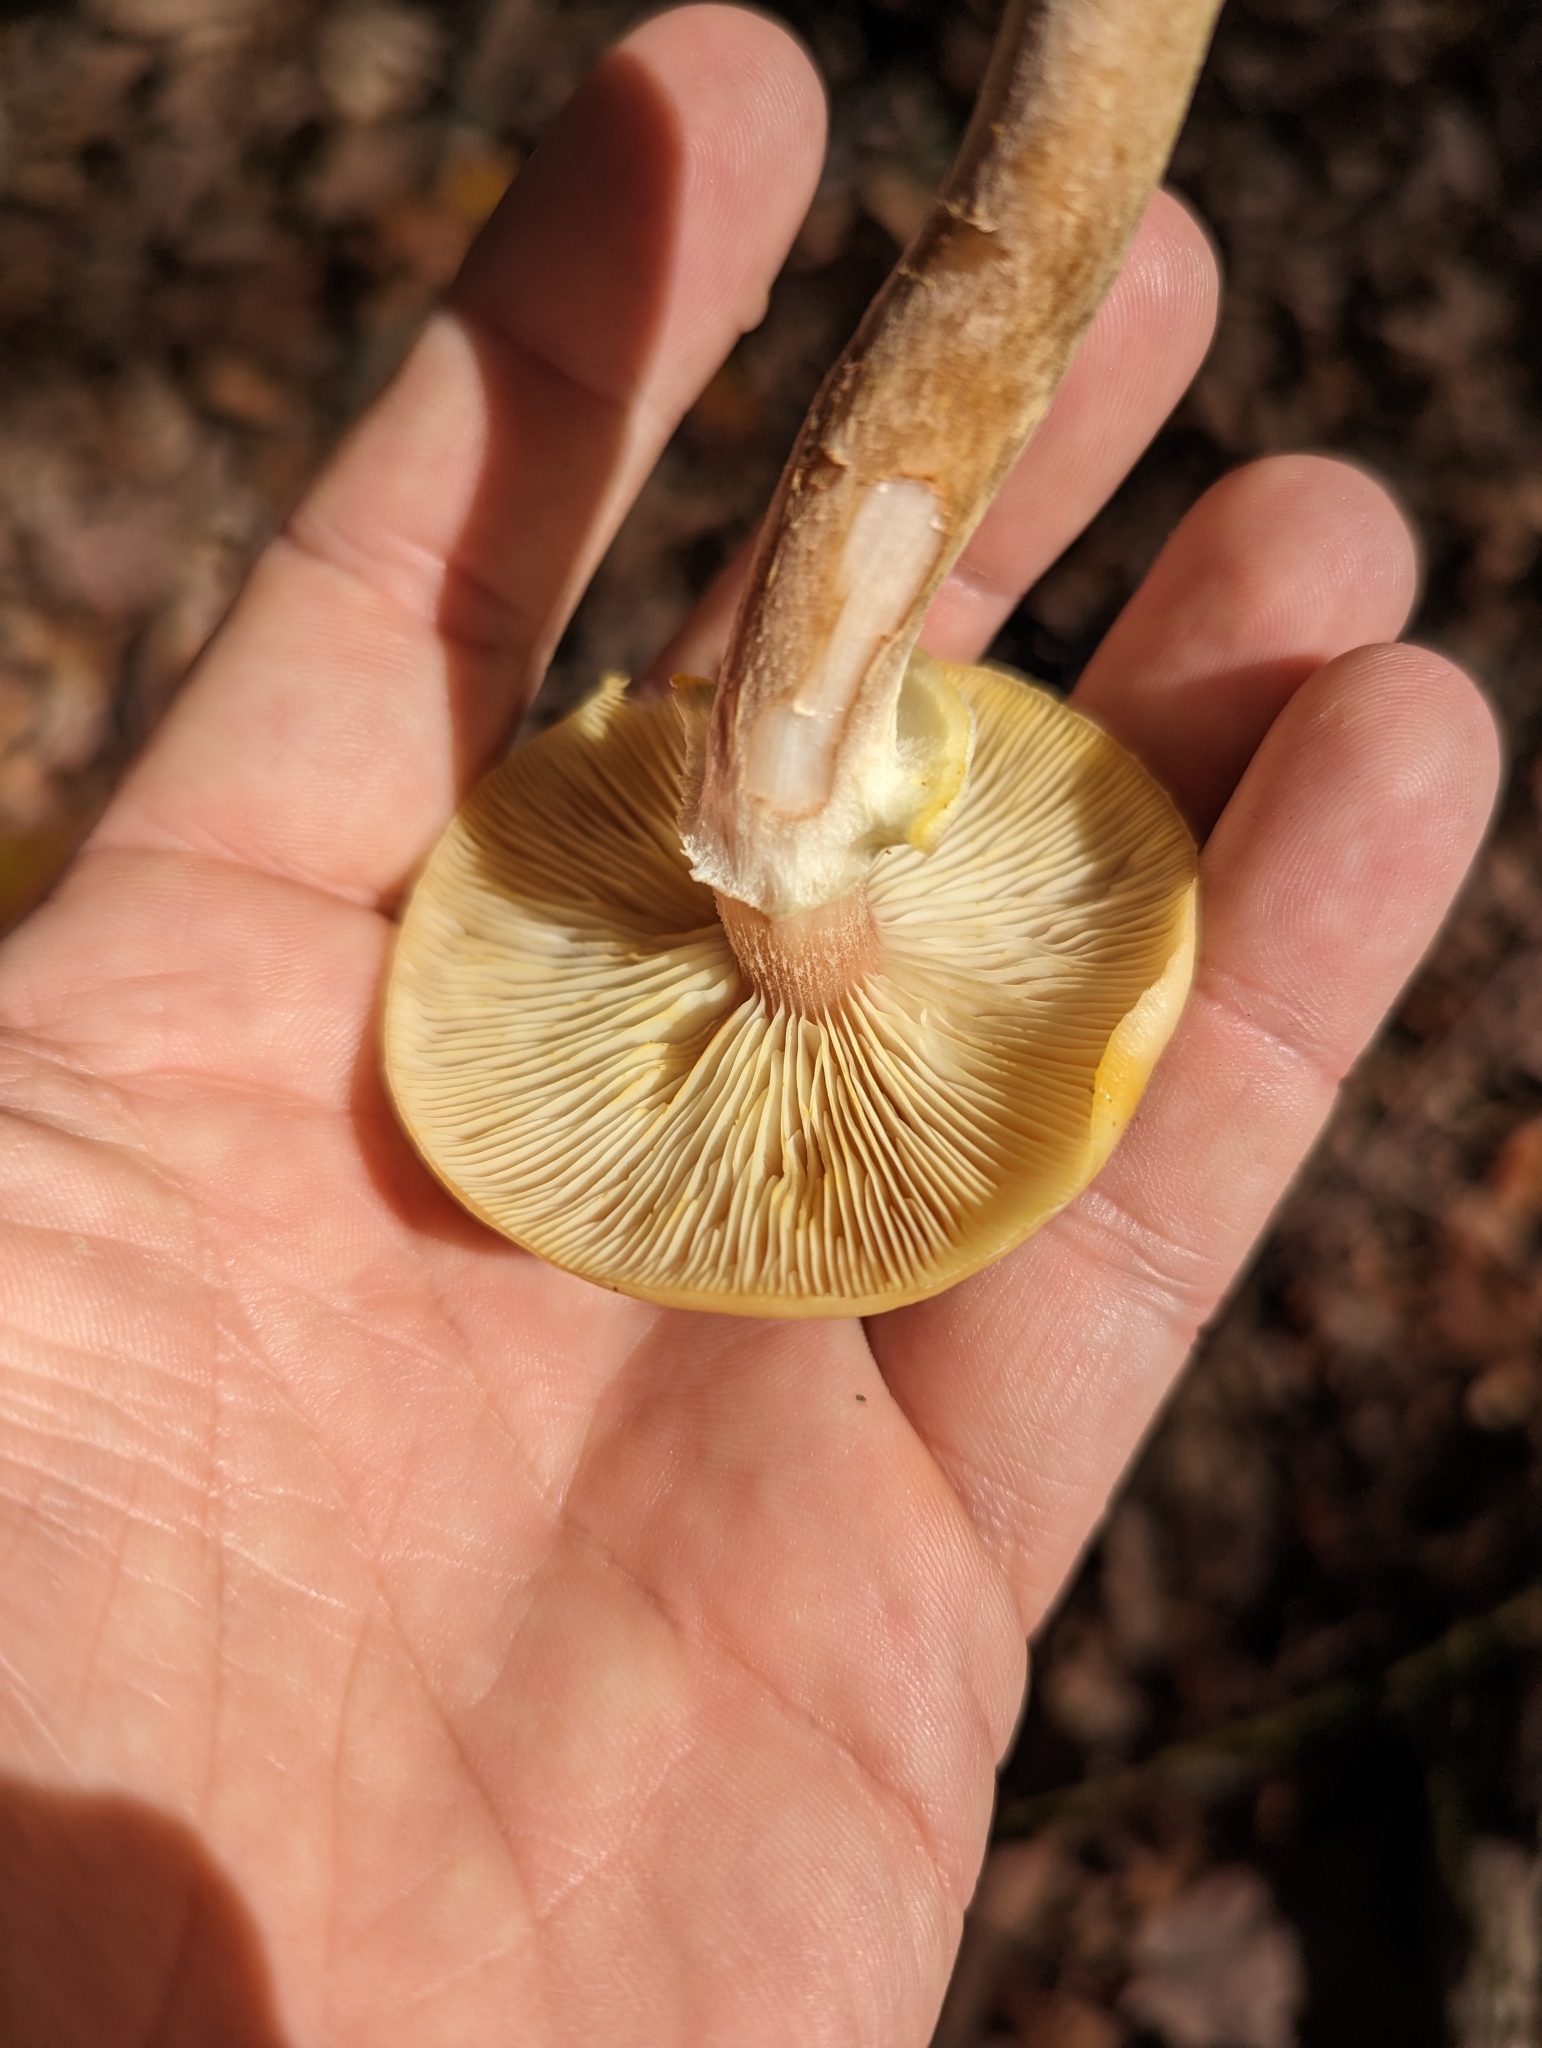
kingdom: Fungi
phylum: Basidiomycota
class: Agaricomycetes
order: Agaricales
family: Physalacriaceae
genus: Armillaria
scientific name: Armillaria mellea
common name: Honey fungus
